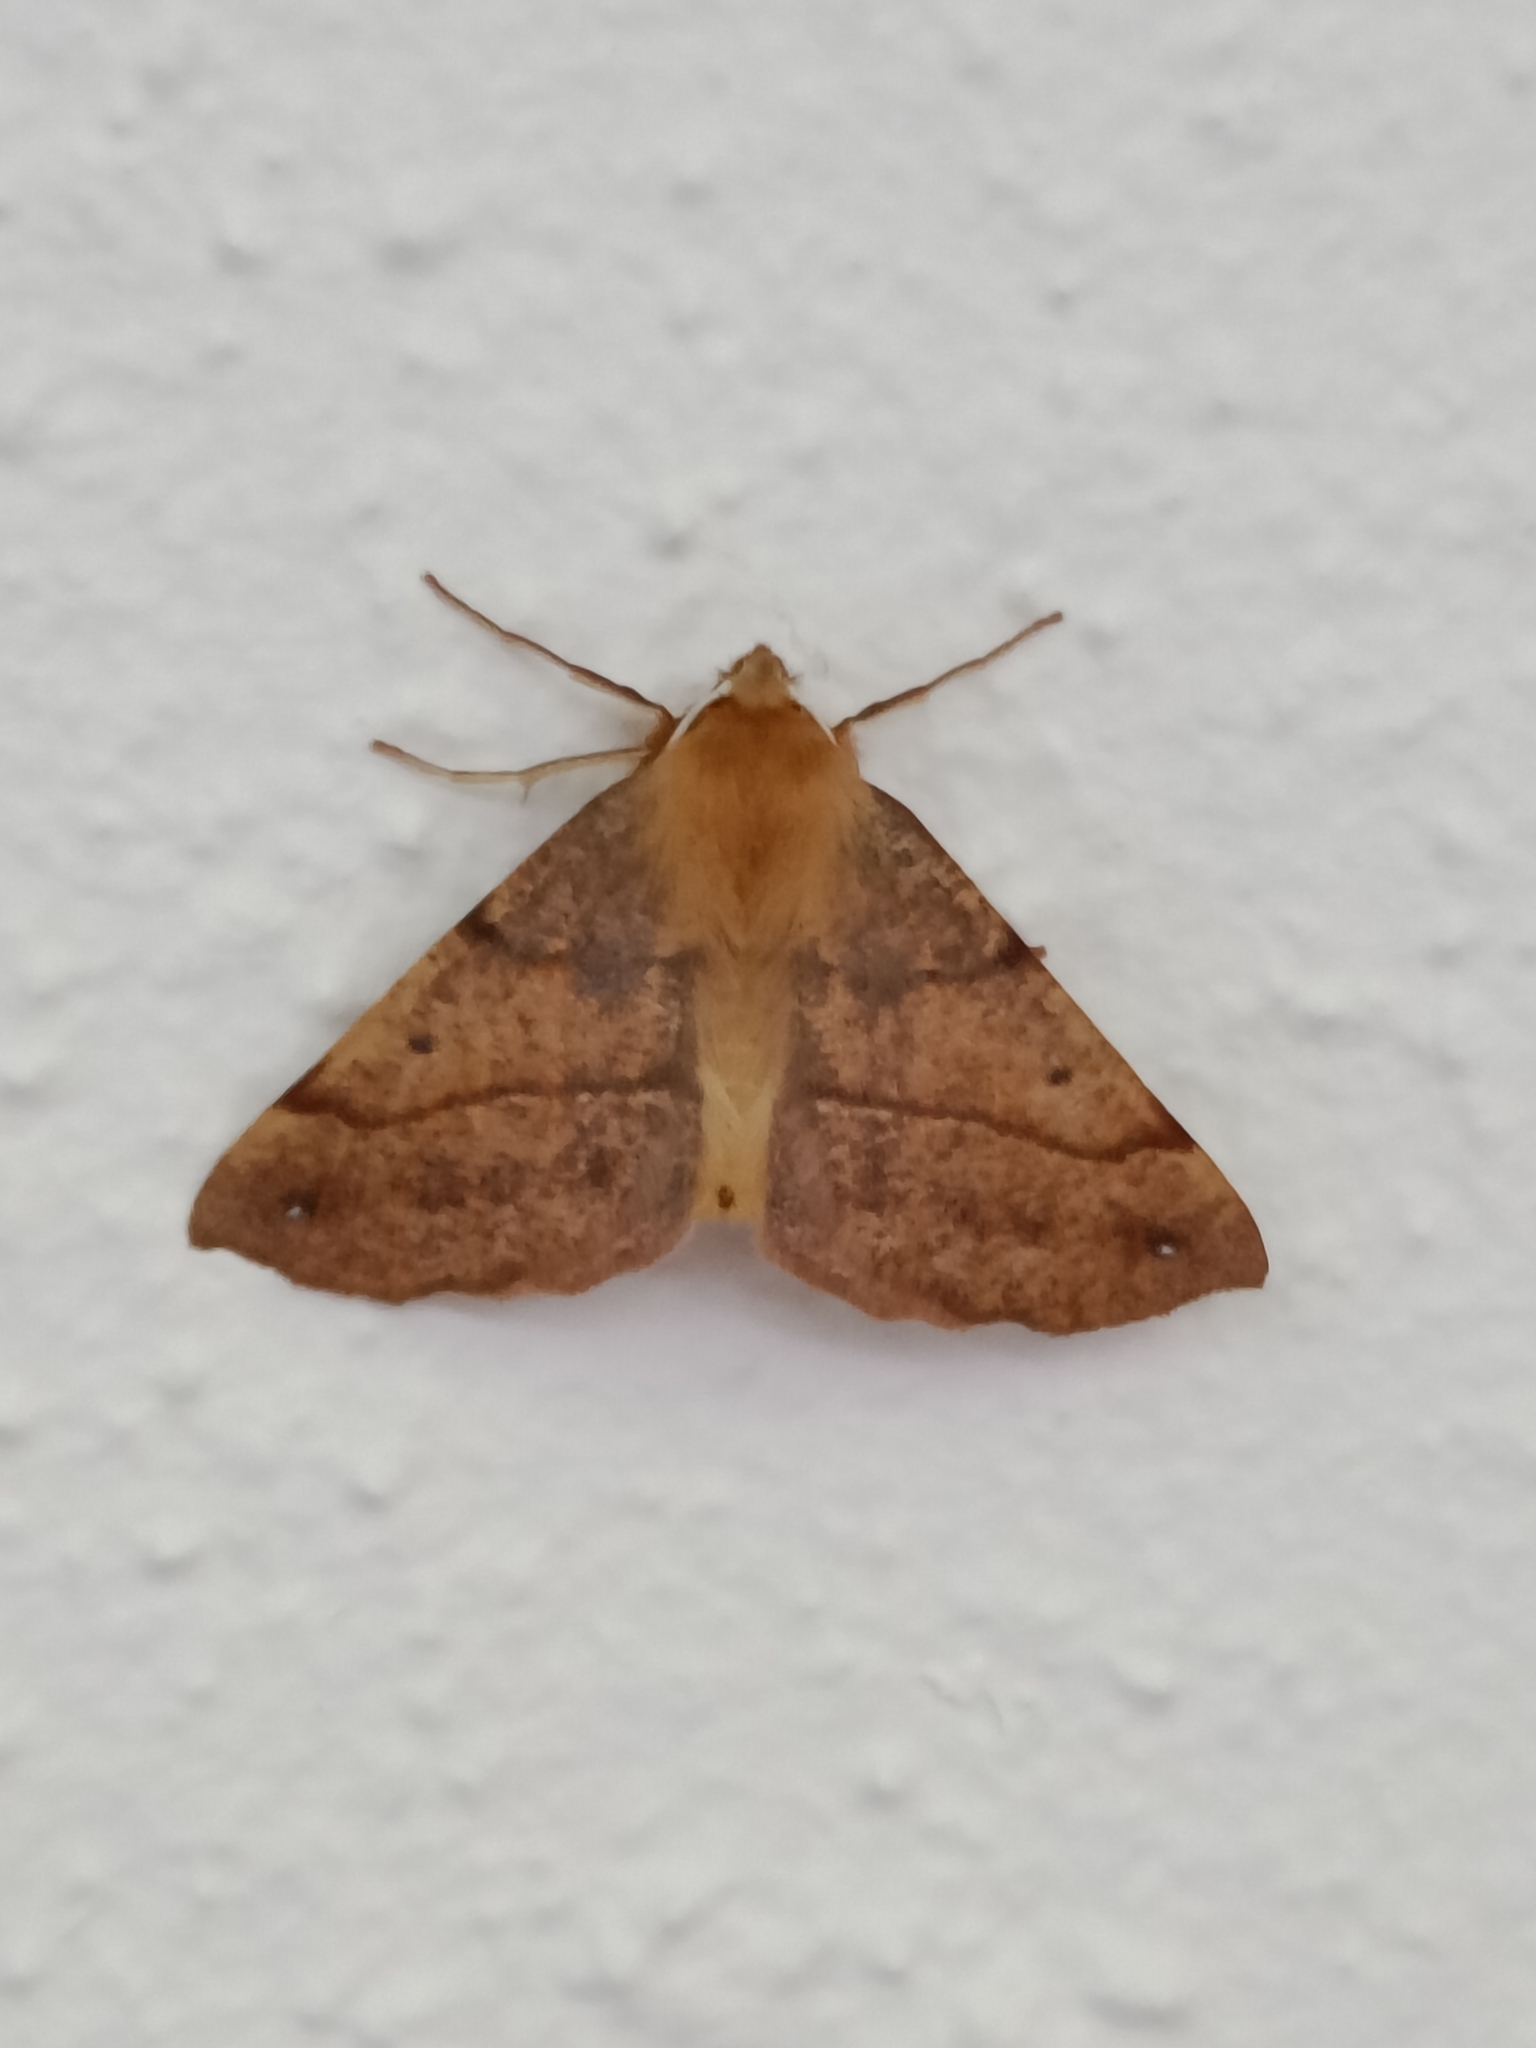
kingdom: Animalia
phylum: Arthropoda
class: Insecta
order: Lepidoptera
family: Geometridae
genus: Colotois
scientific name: Colotois pennaria
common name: Feathered thorn
